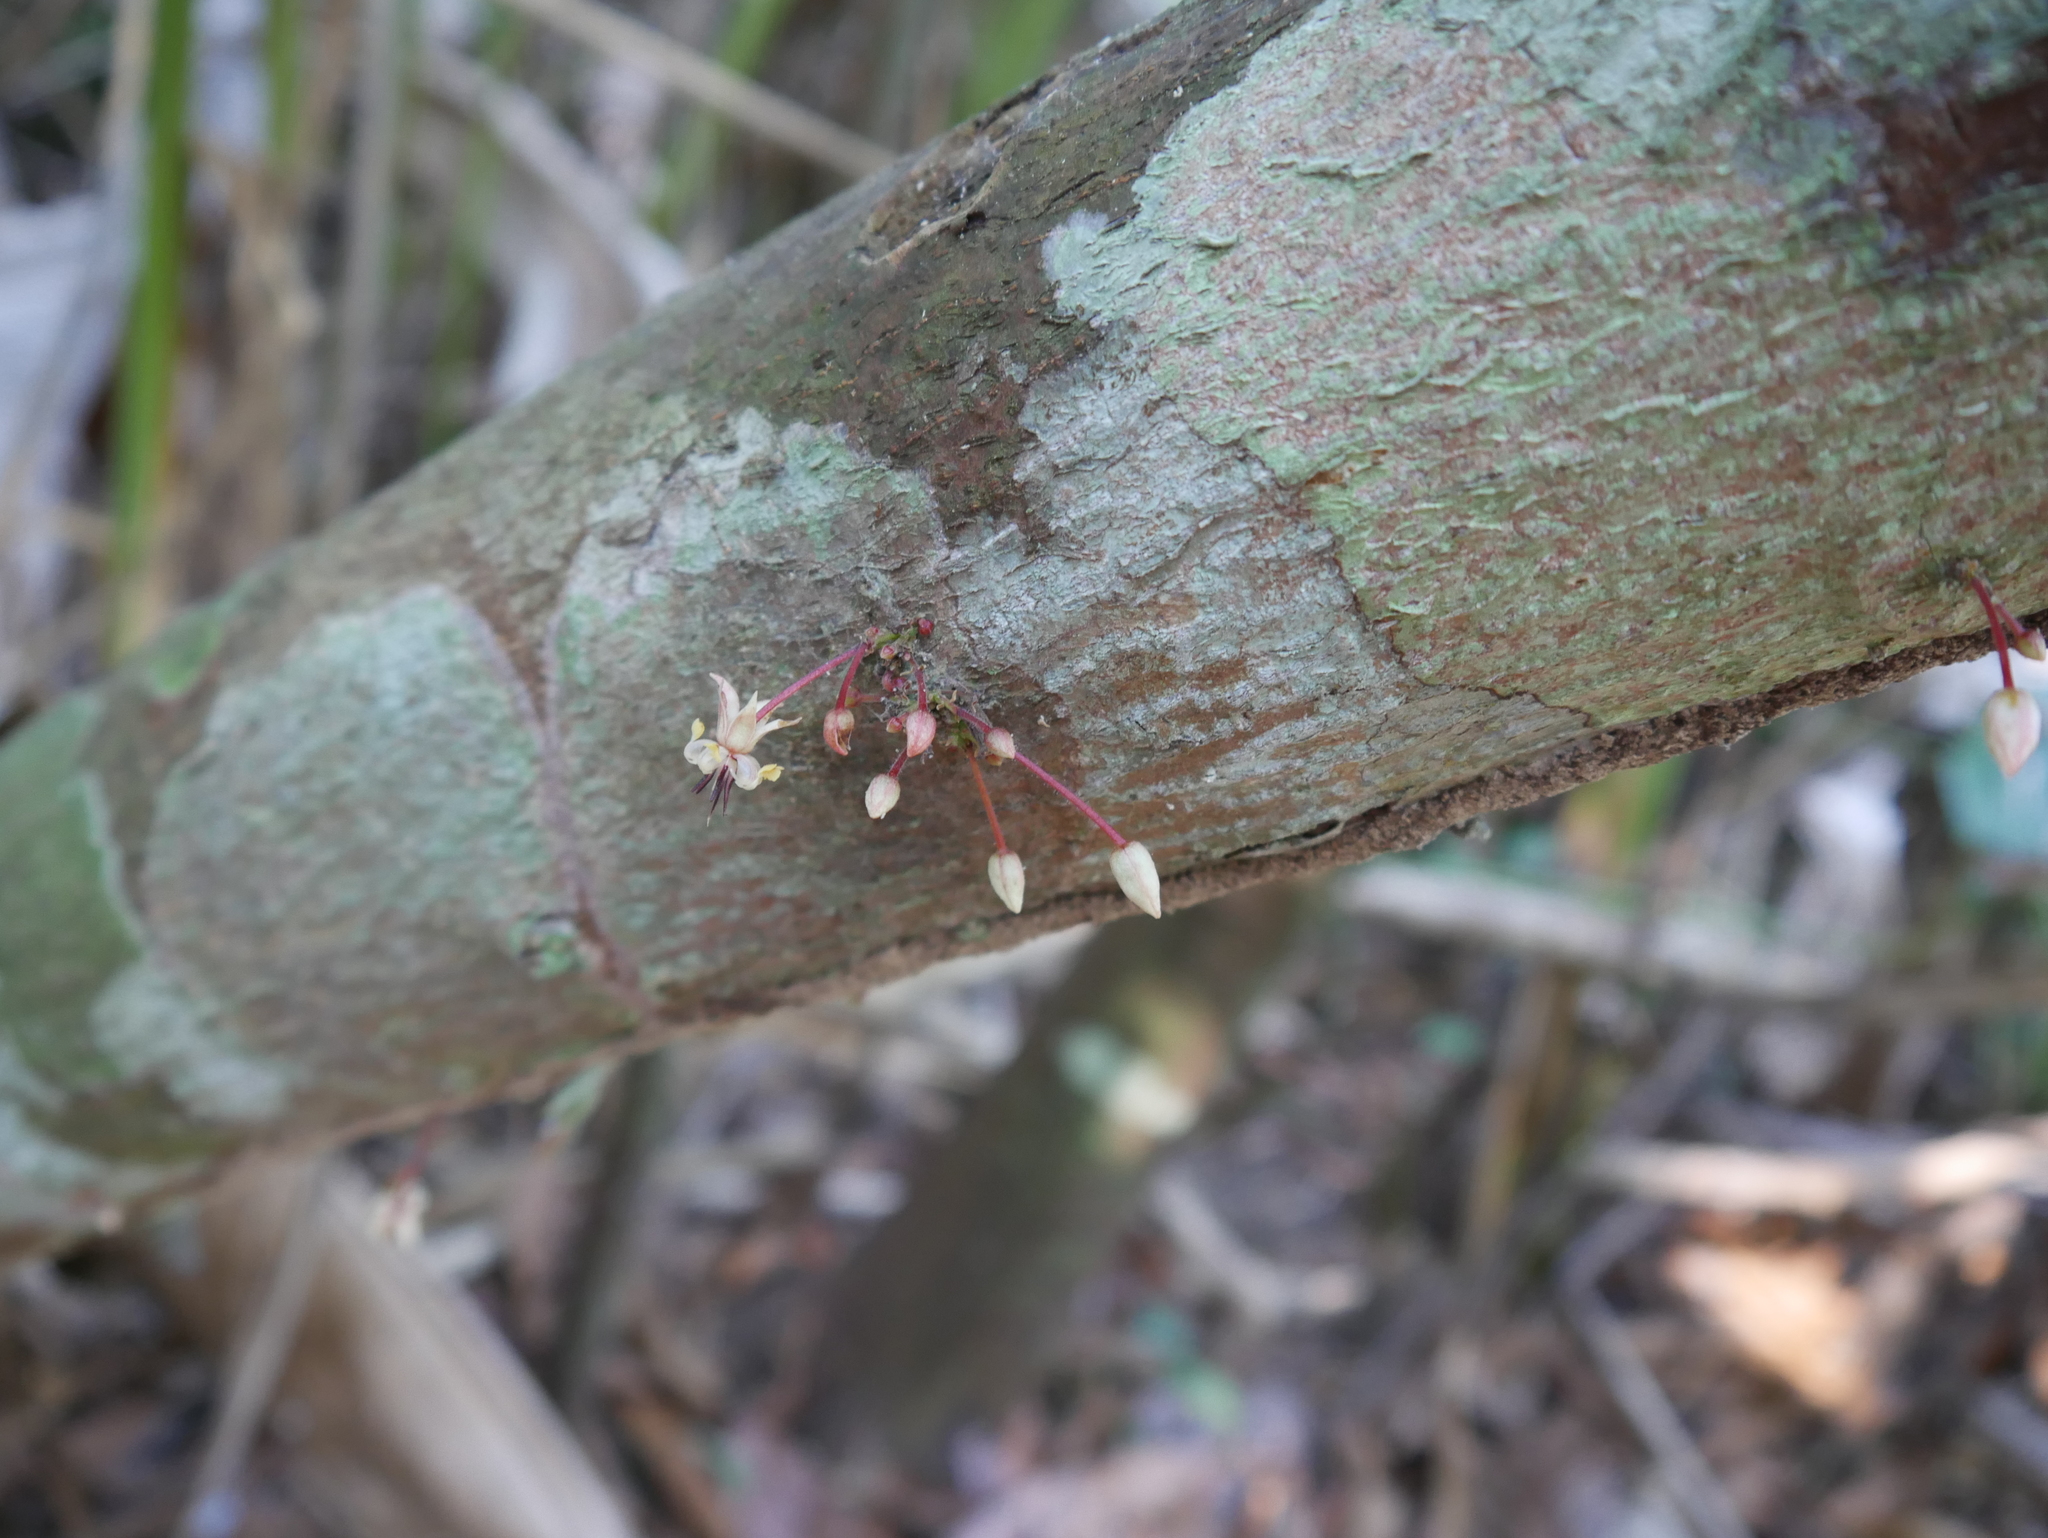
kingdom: Plantae
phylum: Tracheophyta
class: Magnoliopsida
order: Malvales
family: Malvaceae
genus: Theobroma
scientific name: Theobroma cacao
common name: Cocoa
